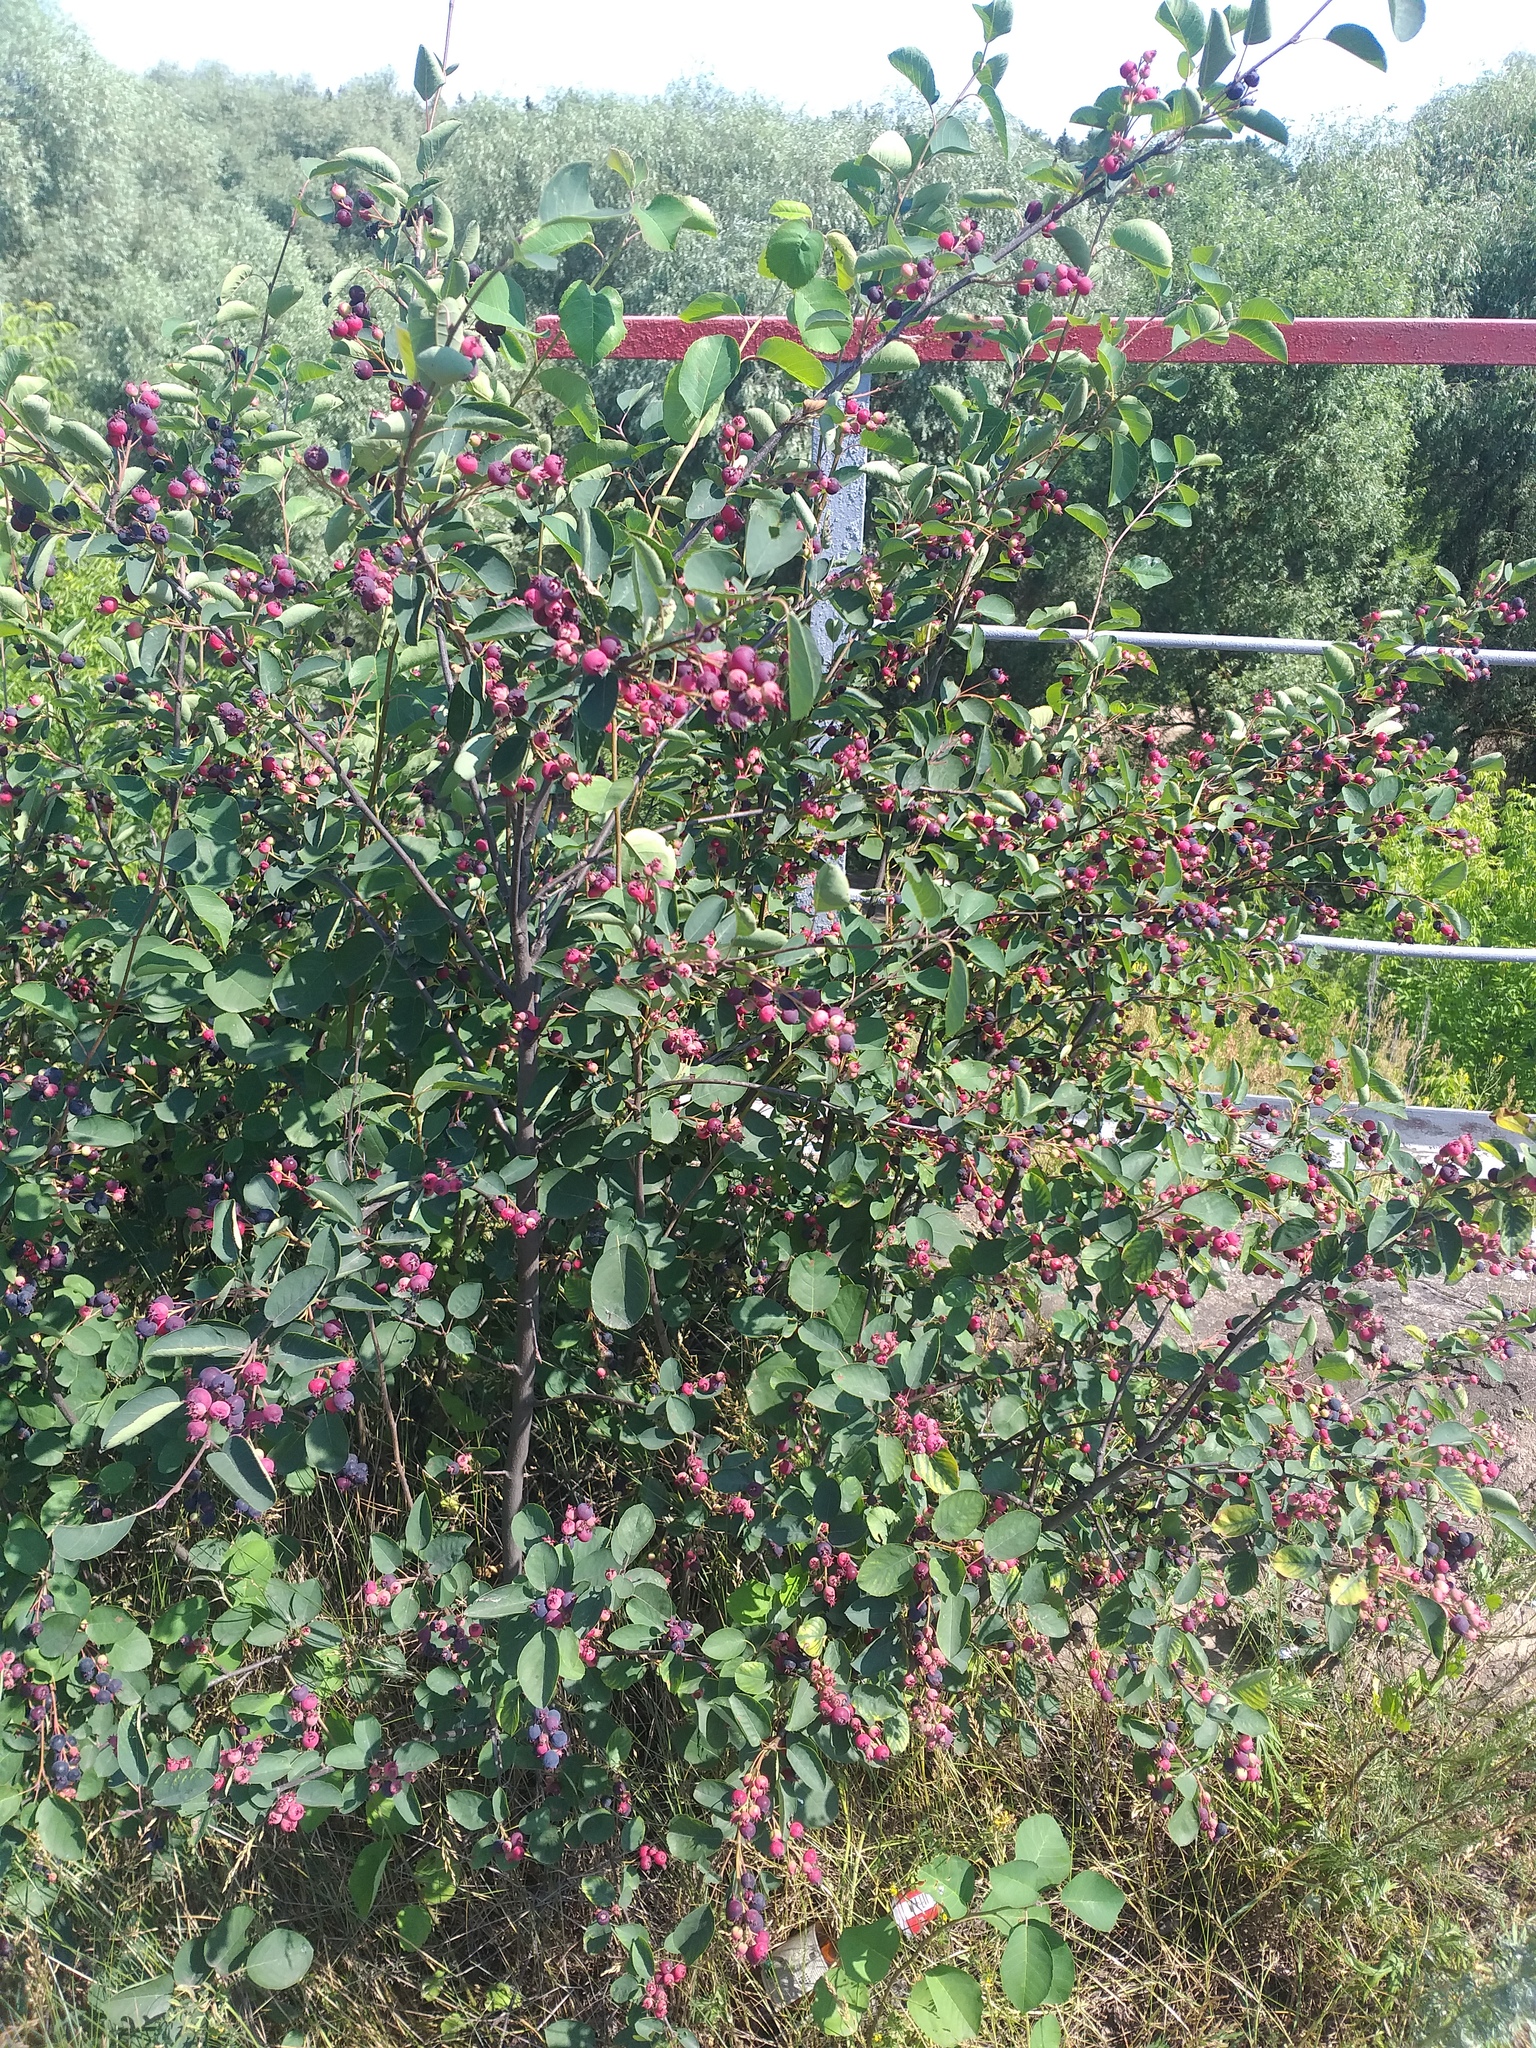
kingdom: Plantae
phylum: Tracheophyta
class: Magnoliopsida
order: Rosales
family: Rosaceae
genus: Amelanchier
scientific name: Amelanchier
